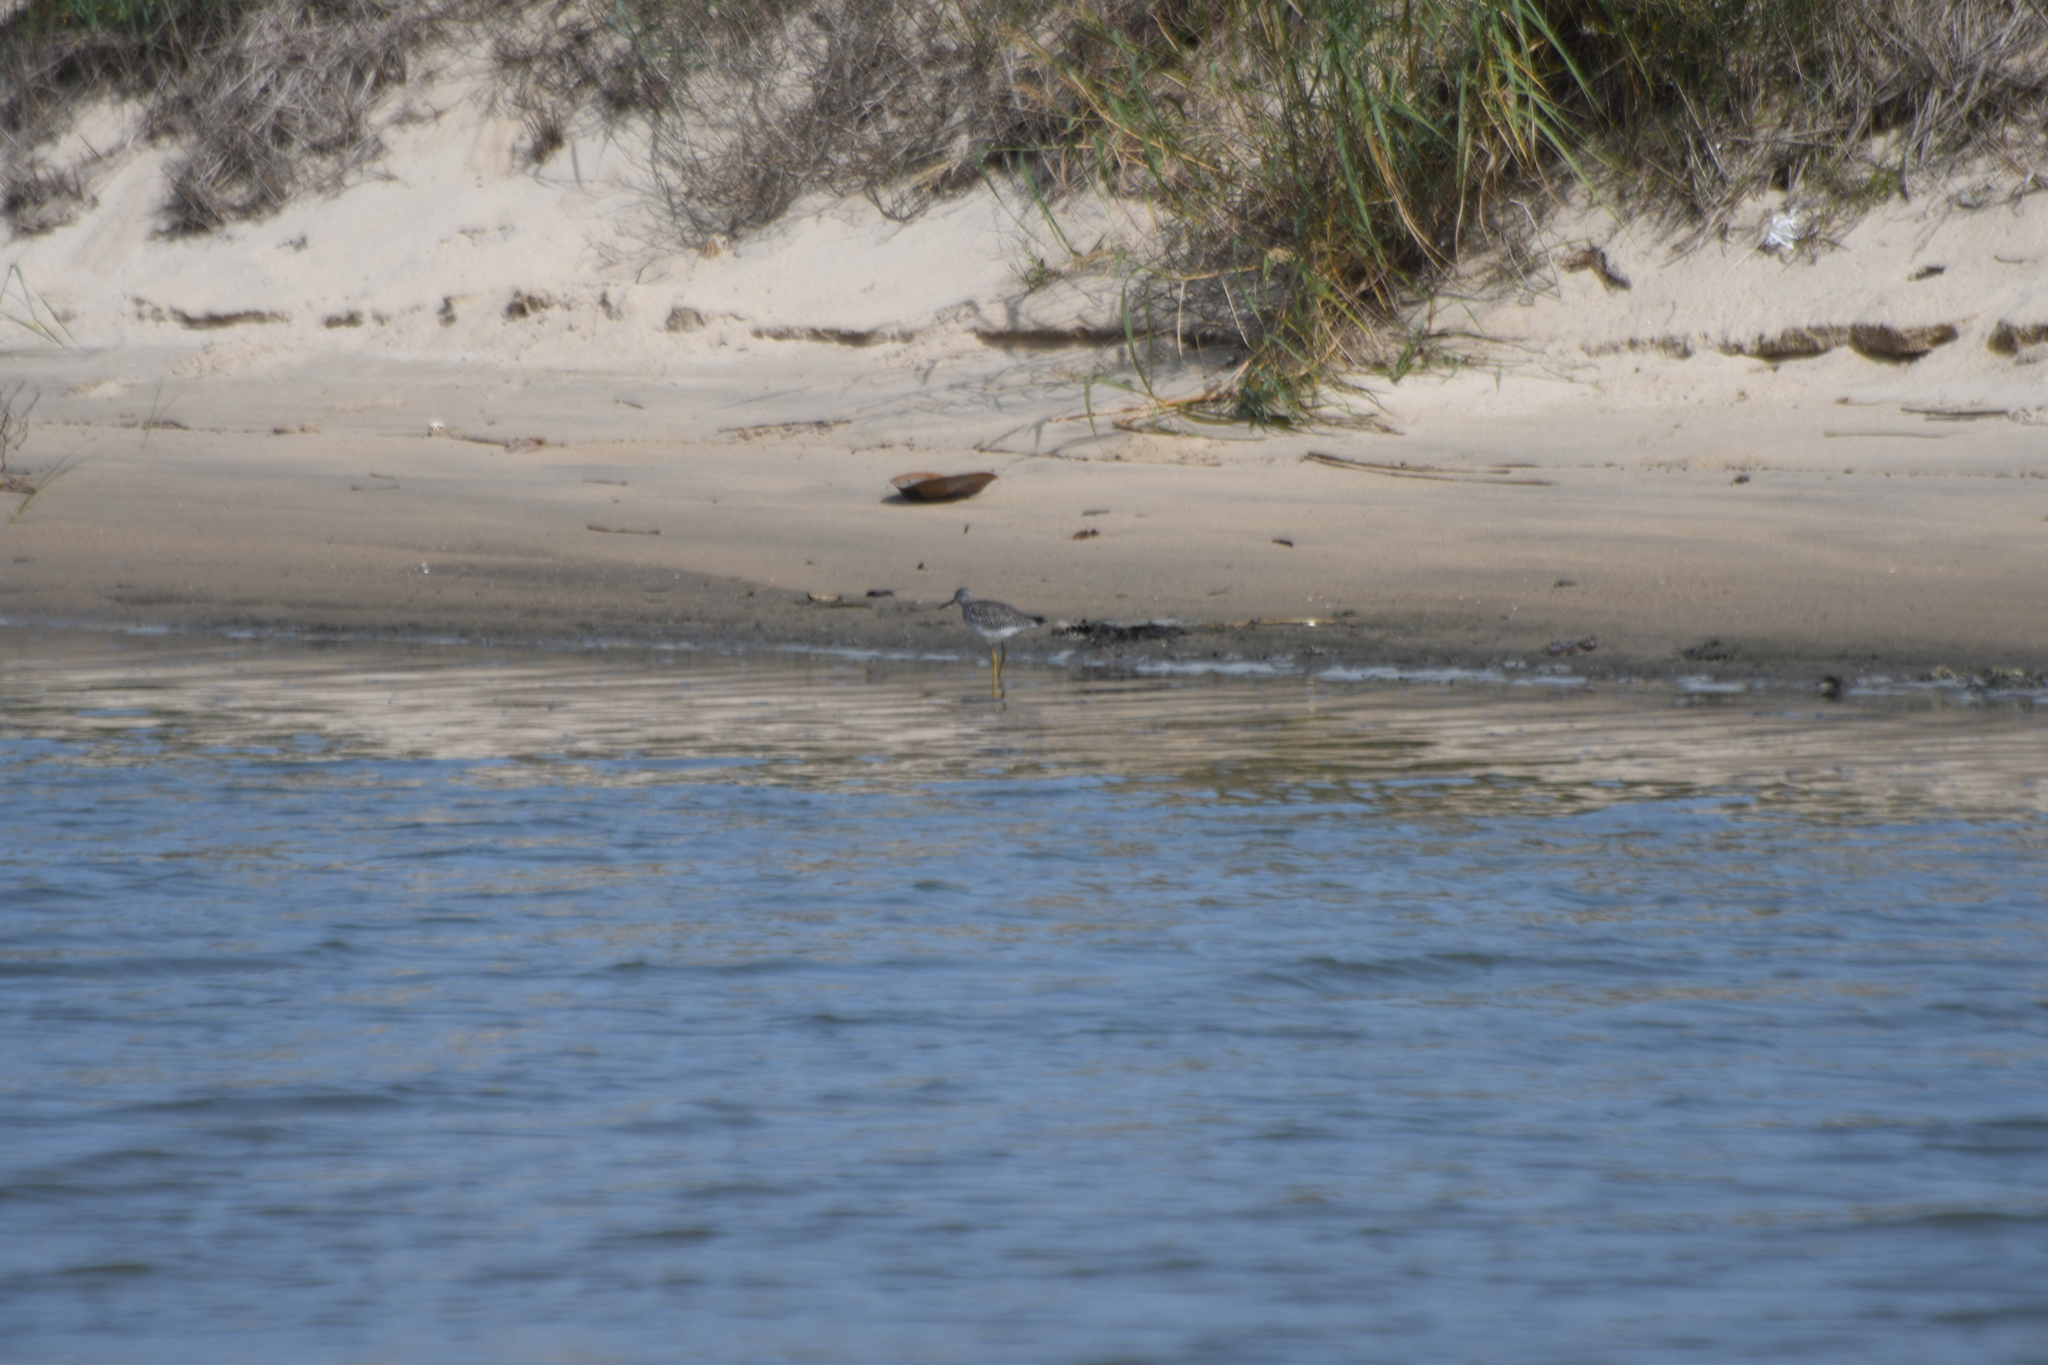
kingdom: Animalia
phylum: Chordata
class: Aves
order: Charadriiformes
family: Scolopacidae
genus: Tringa
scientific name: Tringa melanoleuca
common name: Greater yellowlegs
